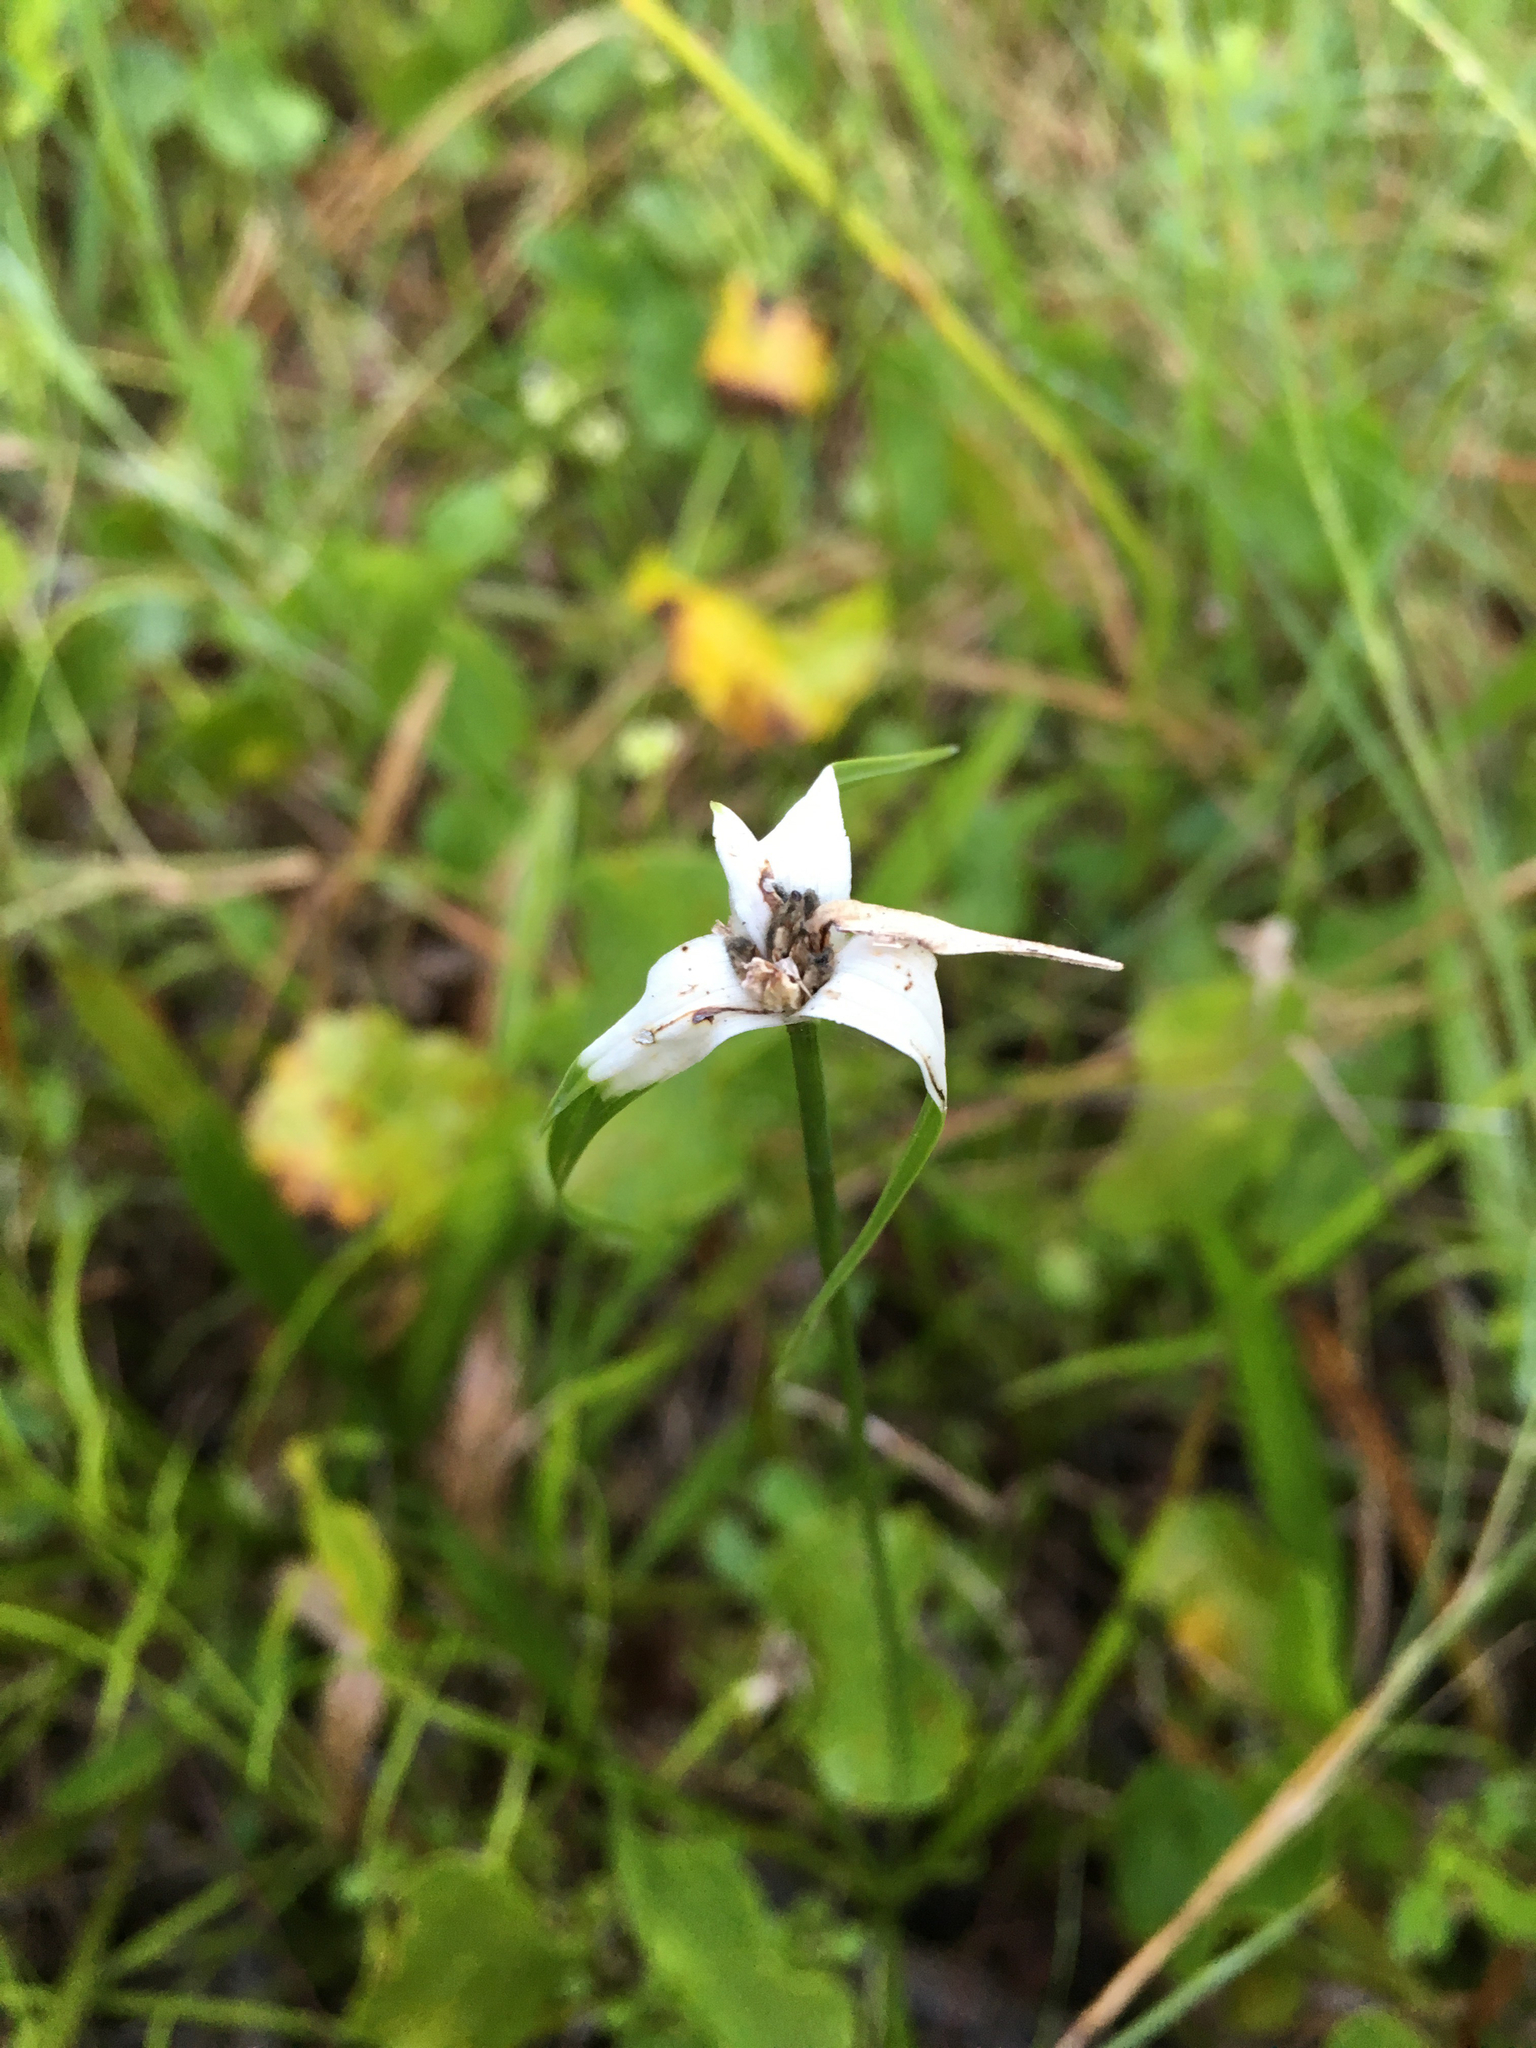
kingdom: Plantae
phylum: Tracheophyta
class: Liliopsida
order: Poales
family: Cyperaceae
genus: Rhynchospora
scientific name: Rhynchospora colorata
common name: Star sedge
